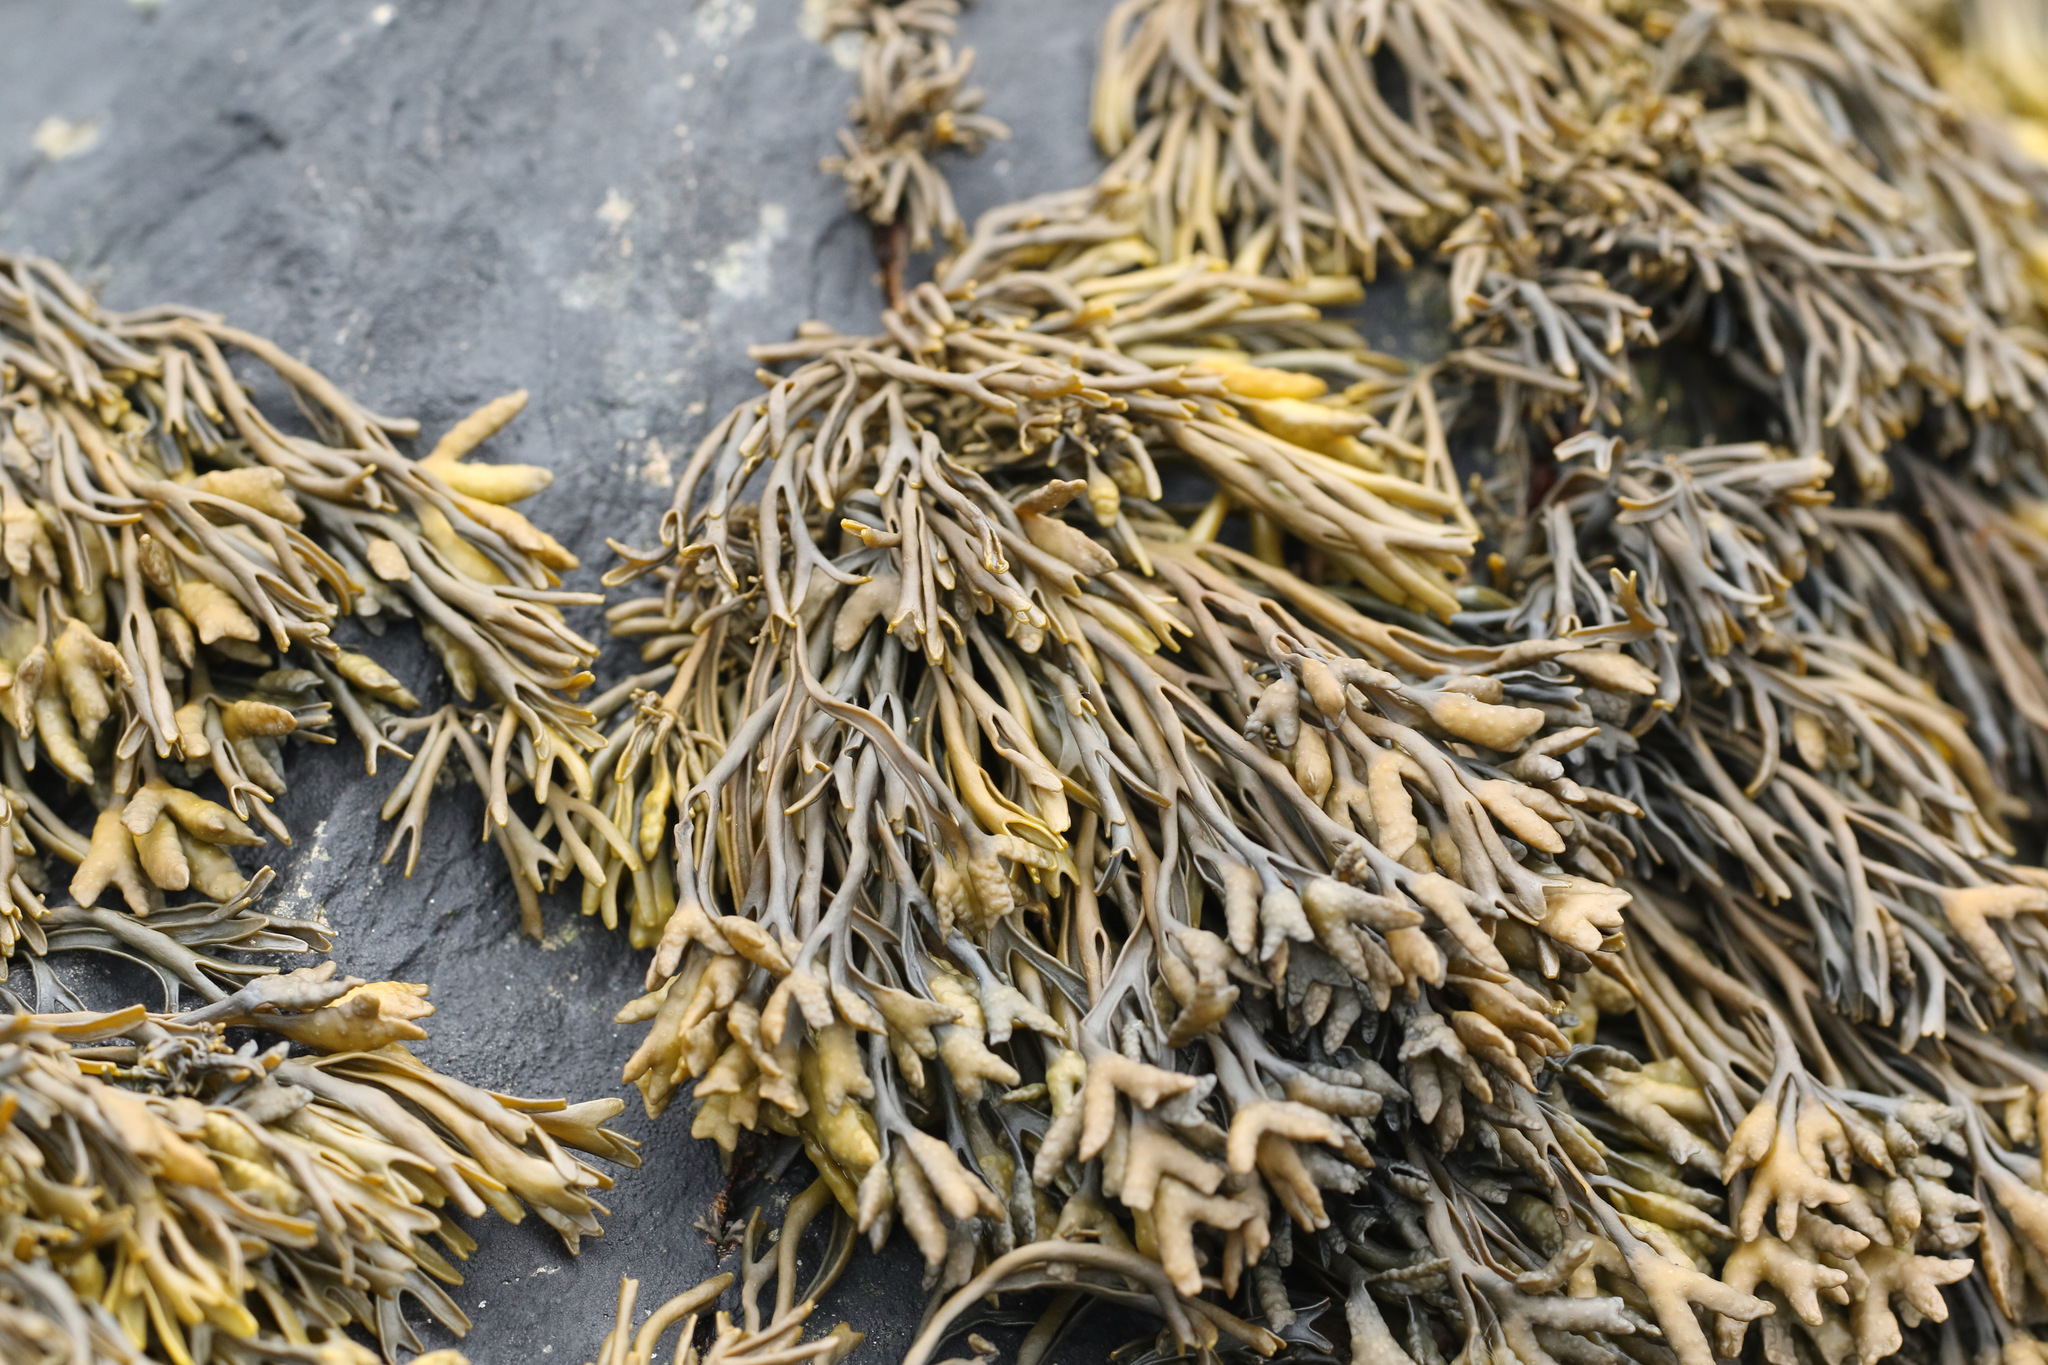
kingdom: Chromista
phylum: Ochrophyta
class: Phaeophyceae
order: Fucales
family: Fucaceae
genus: Pelvetia
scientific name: Pelvetia canaliculata
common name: Channelled wrack
